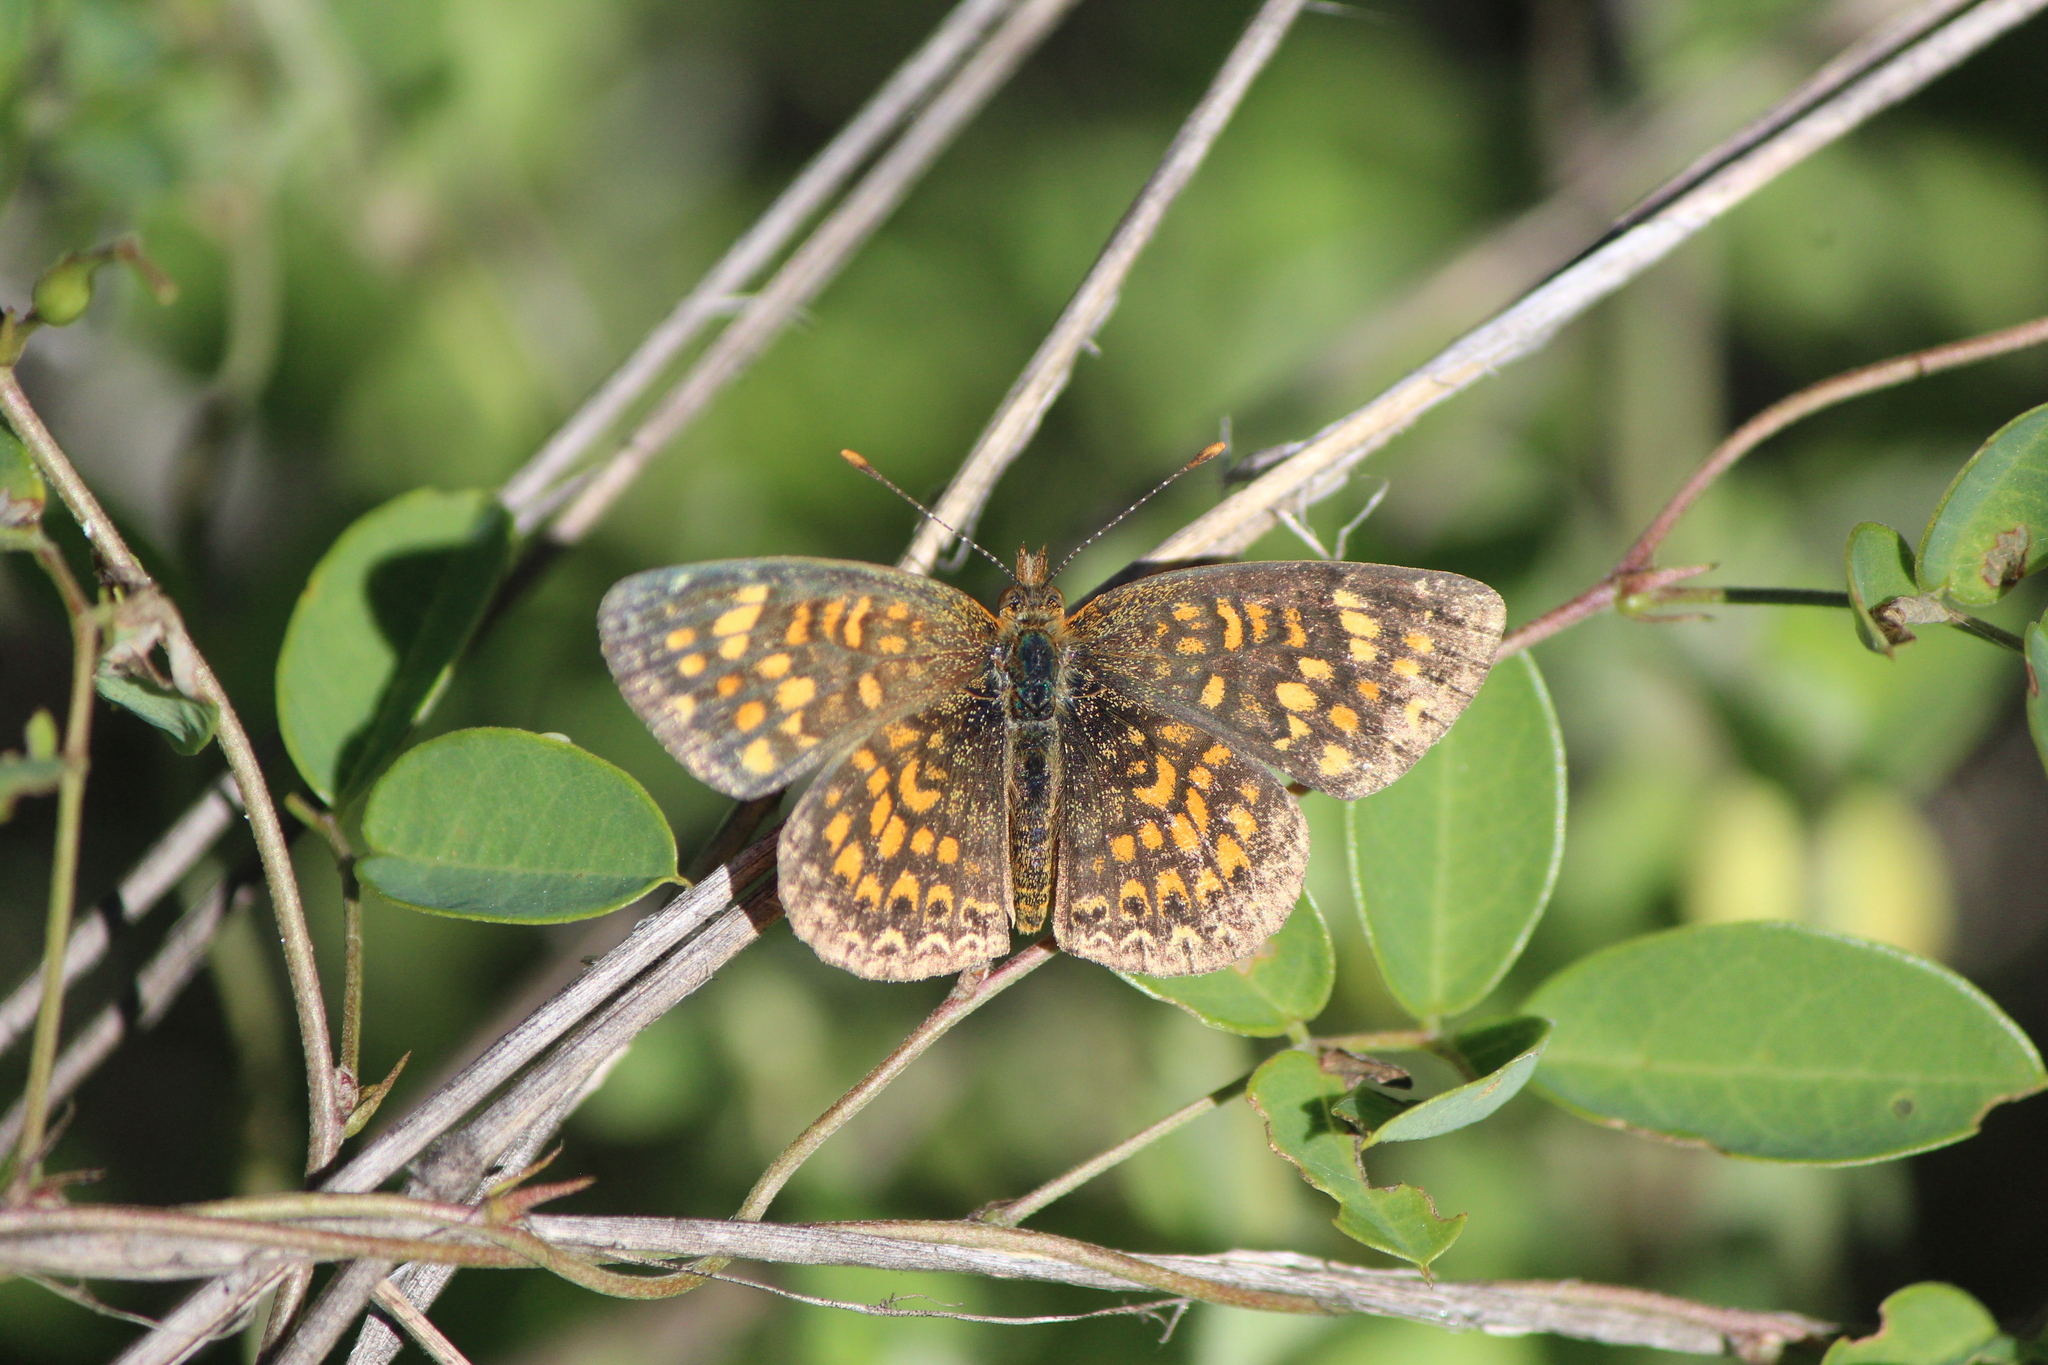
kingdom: Animalia
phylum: Arthropoda
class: Insecta
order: Lepidoptera
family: Nymphalidae
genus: Texola
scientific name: Texola elada
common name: Elada checkerspot
